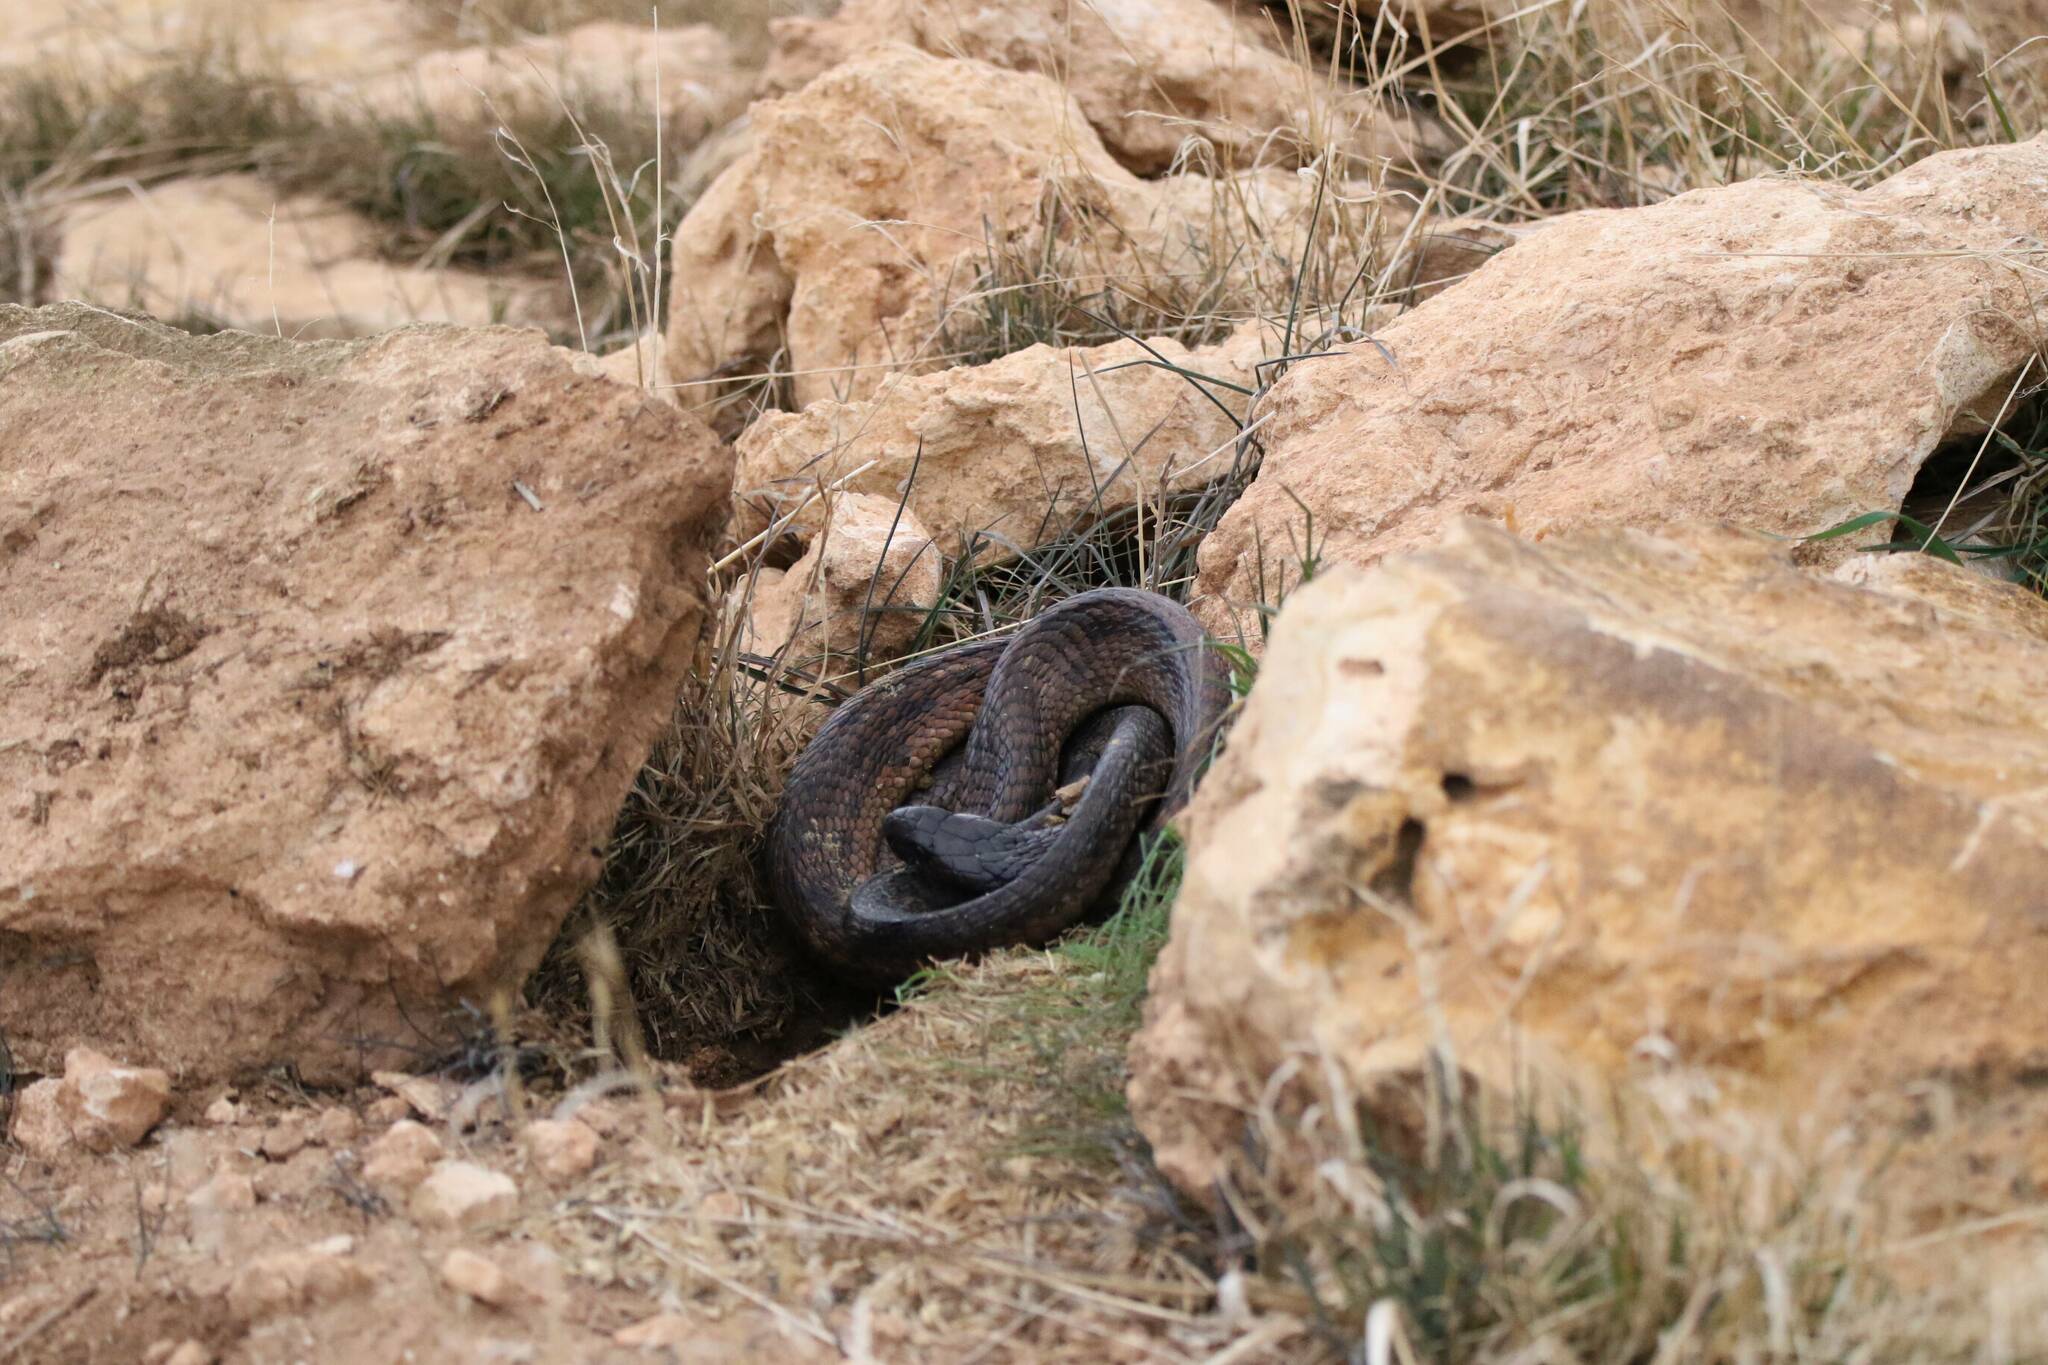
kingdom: Animalia
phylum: Chordata
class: Squamata
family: Elapidae
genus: Naja
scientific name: Naja haje
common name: Egyptian cobra
